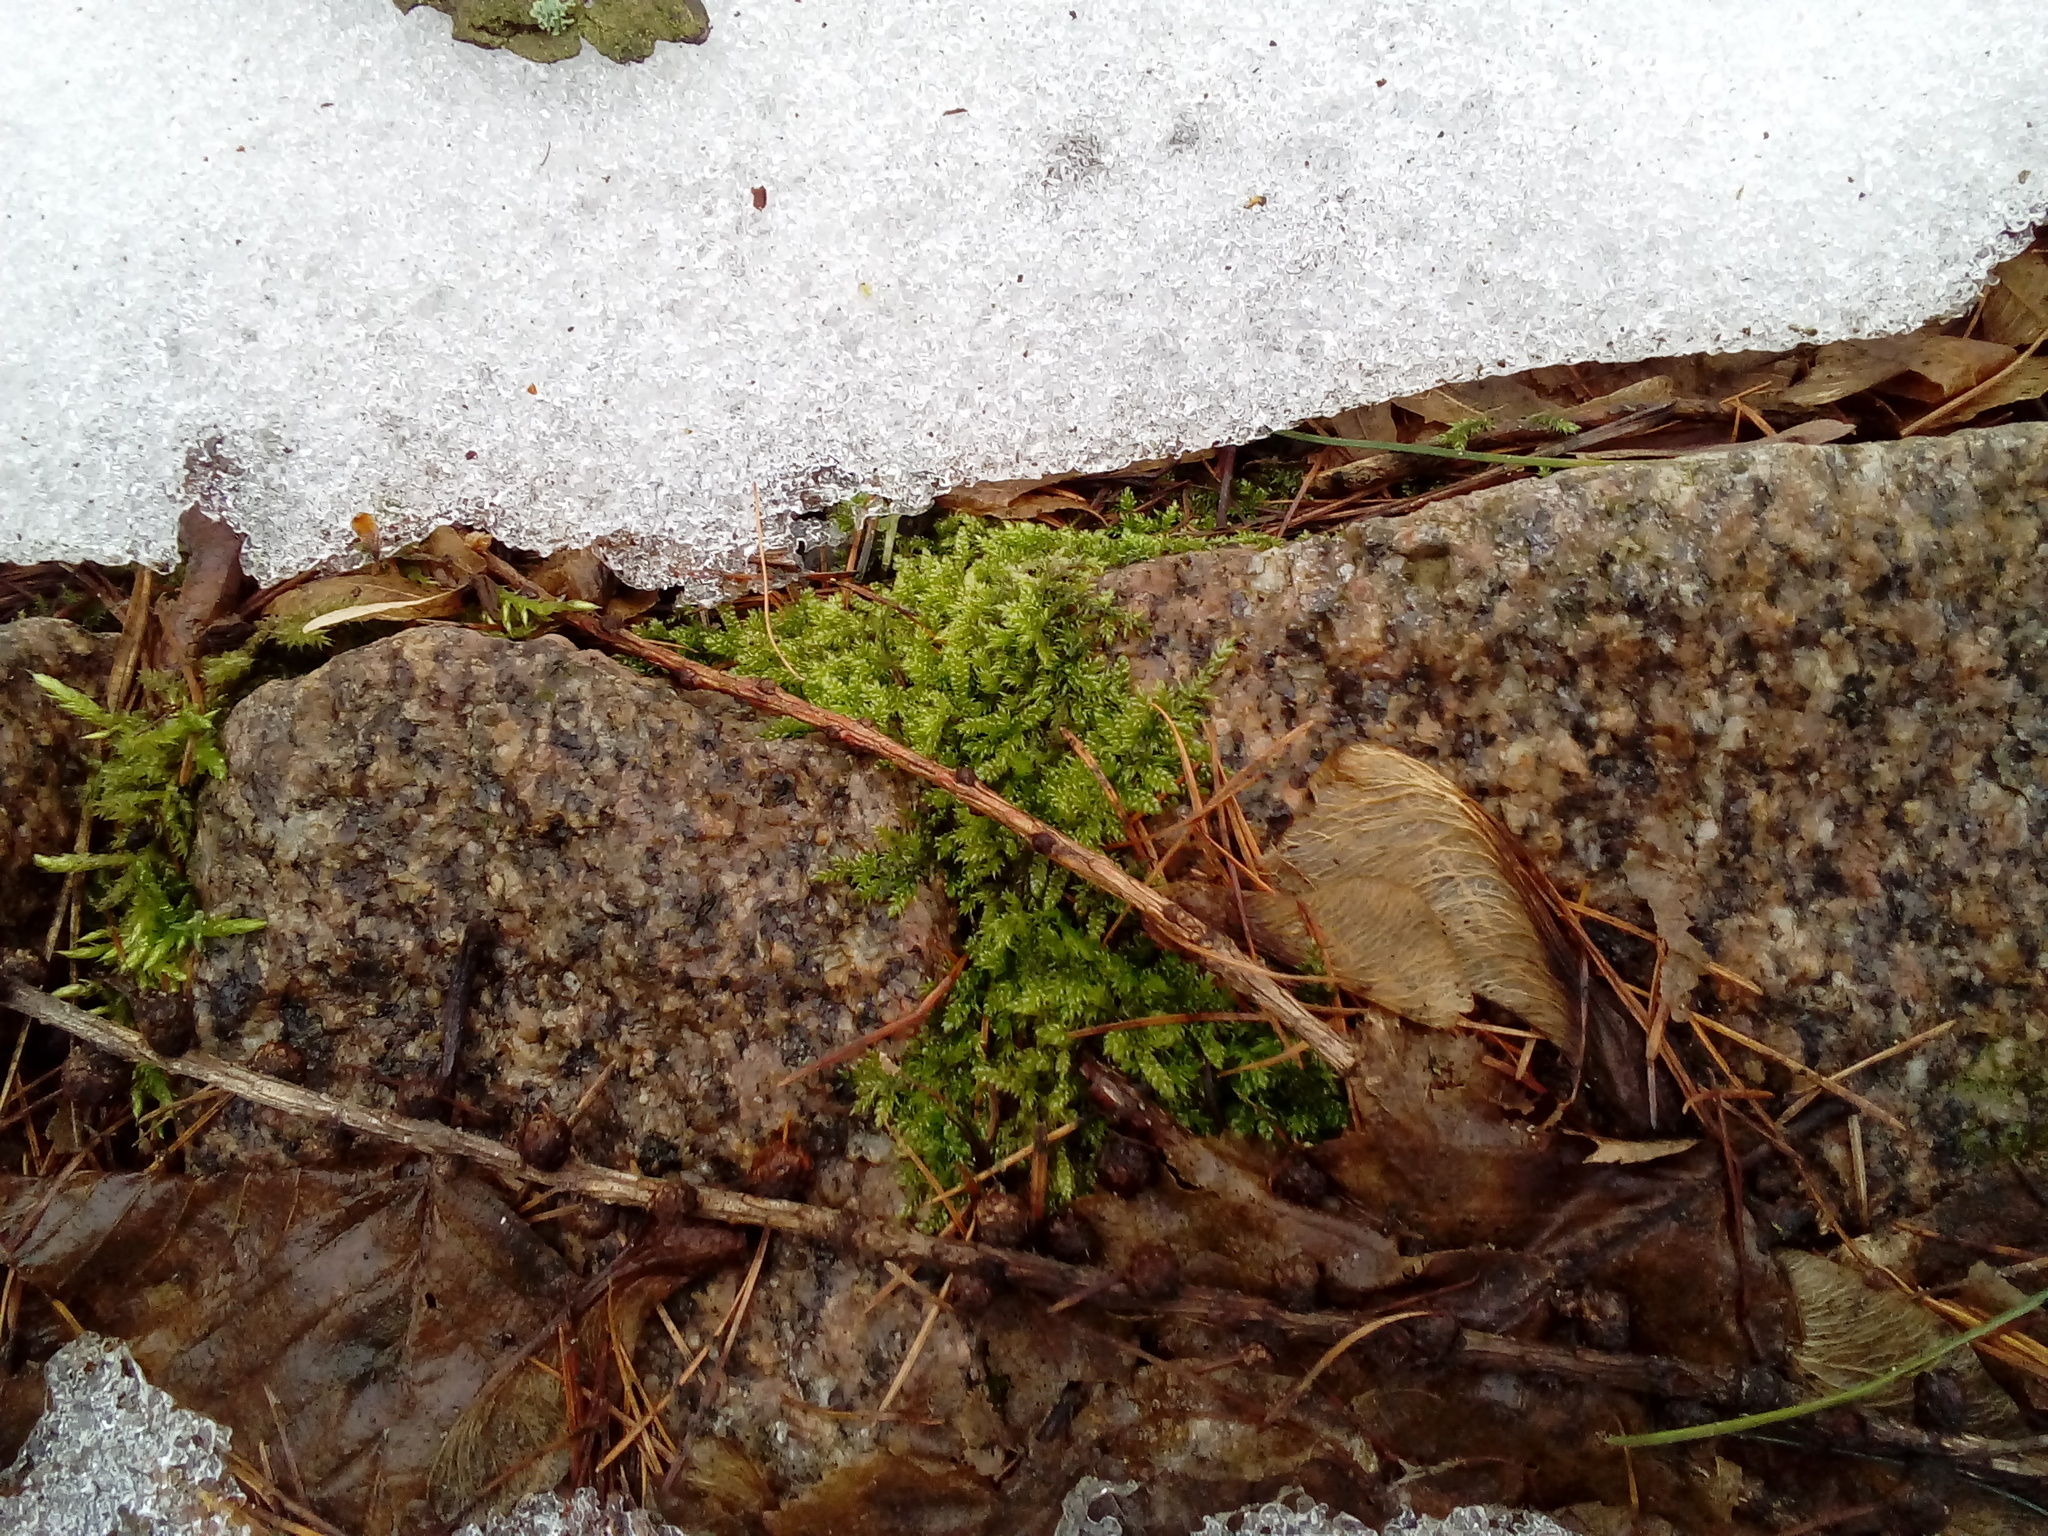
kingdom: Plantae
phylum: Bryophyta
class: Bryopsida
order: Hypnales
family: Hypnaceae
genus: Hypnum
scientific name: Hypnum cupressiforme
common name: Cypress-leaved plait-moss
